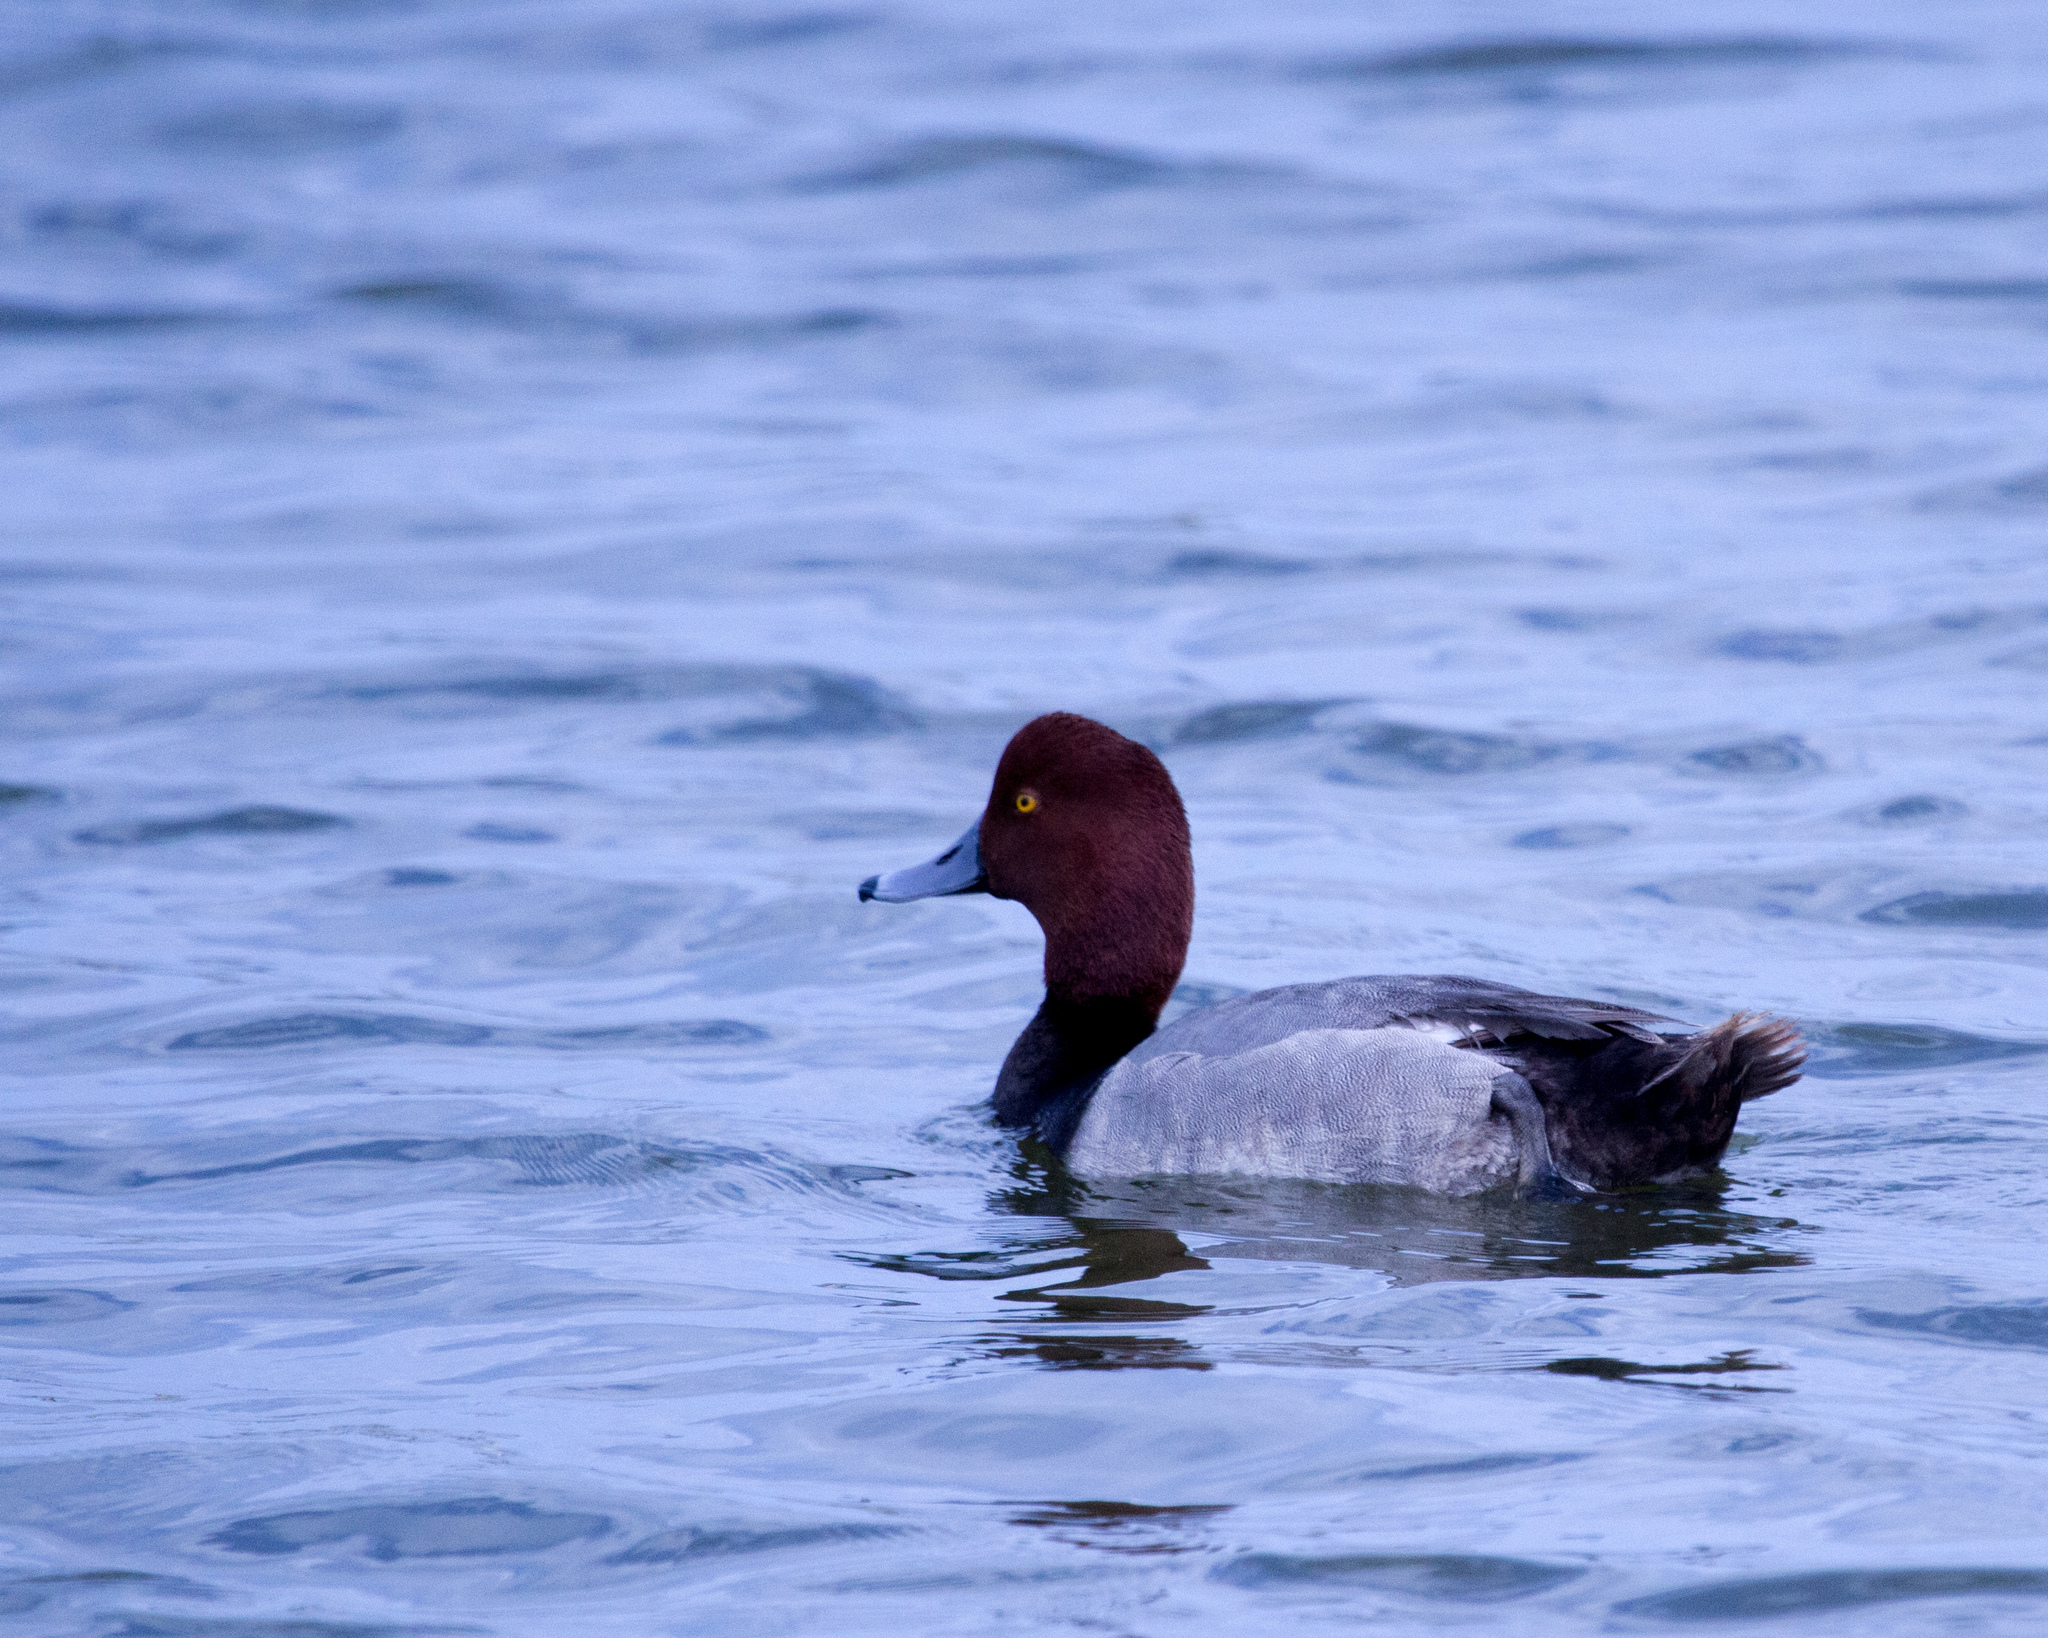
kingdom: Animalia
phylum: Chordata
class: Aves
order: Anseriformes
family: Anatidae
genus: Aythya
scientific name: Aythya americana
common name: Redhead
